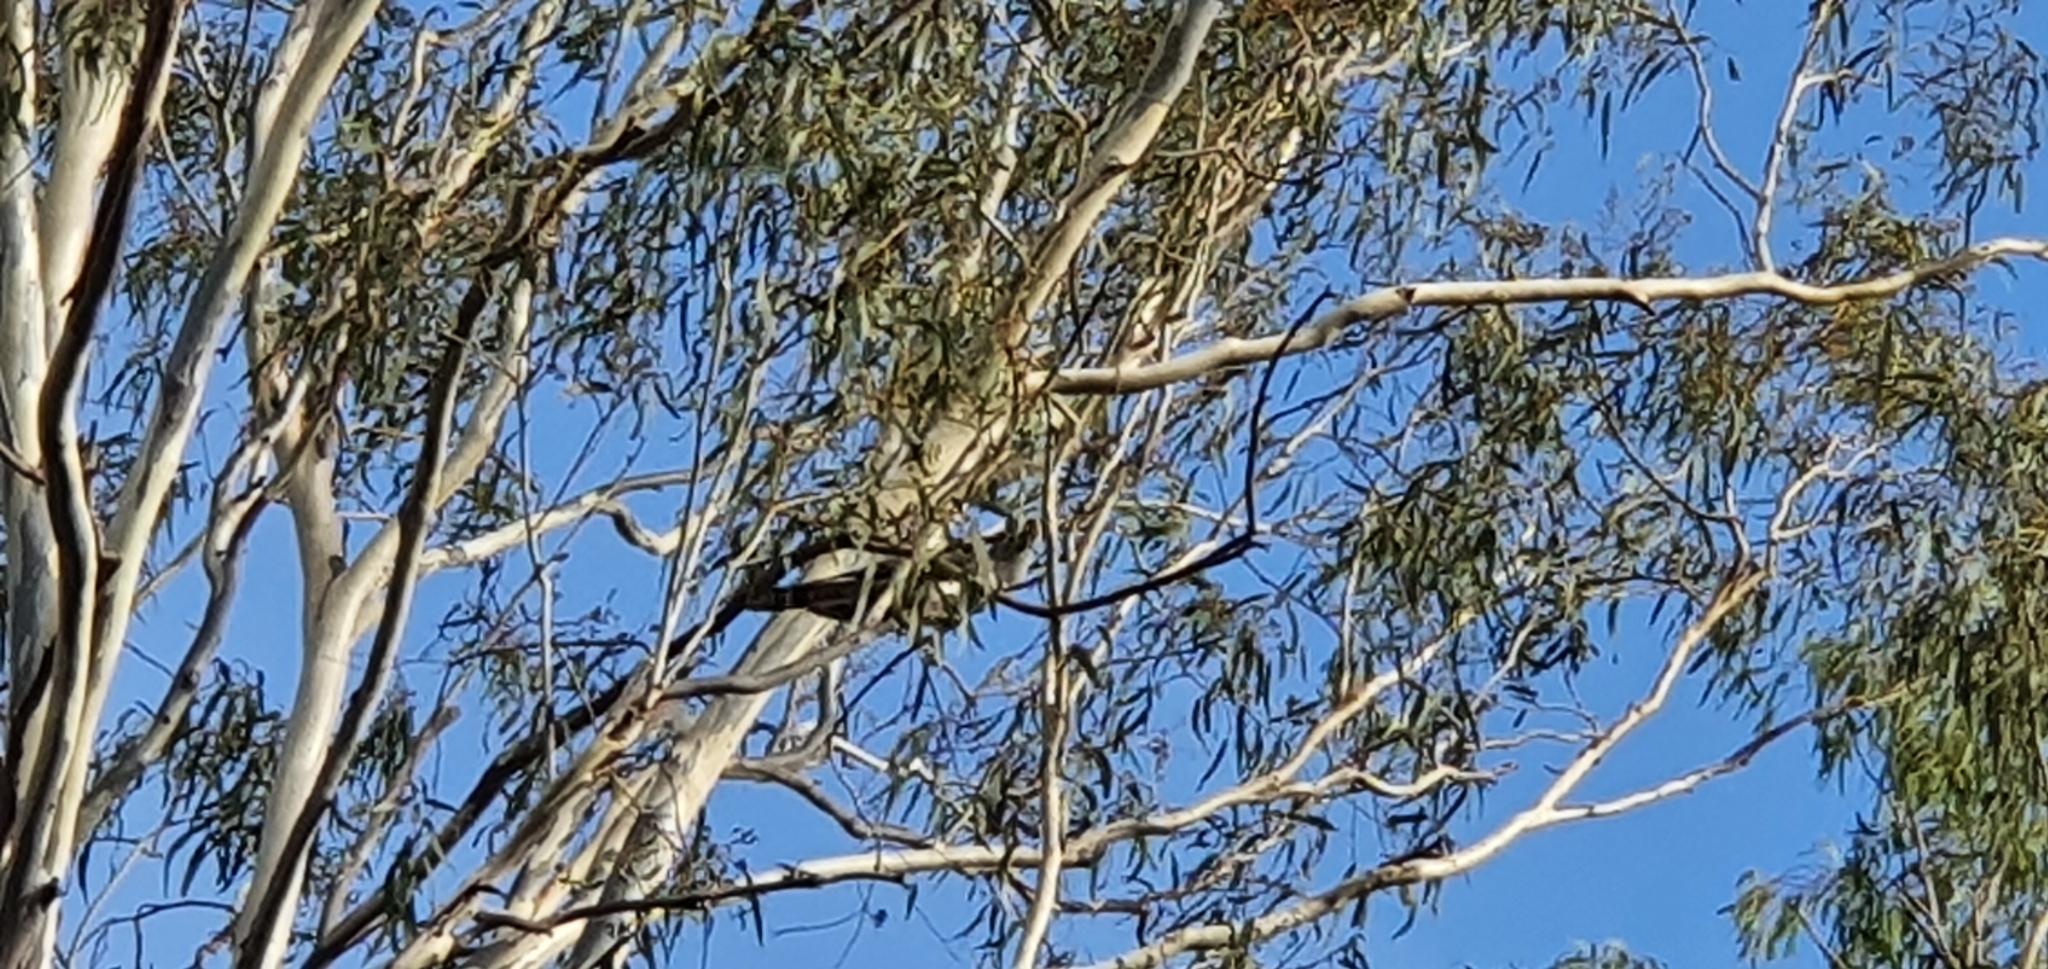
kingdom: Animalia
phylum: Chordata
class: Aves
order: Cuculiformes
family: Cuculidae
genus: Scythrops
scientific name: Scythrops novaehollandiae
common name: Channel-billed cuckoo
